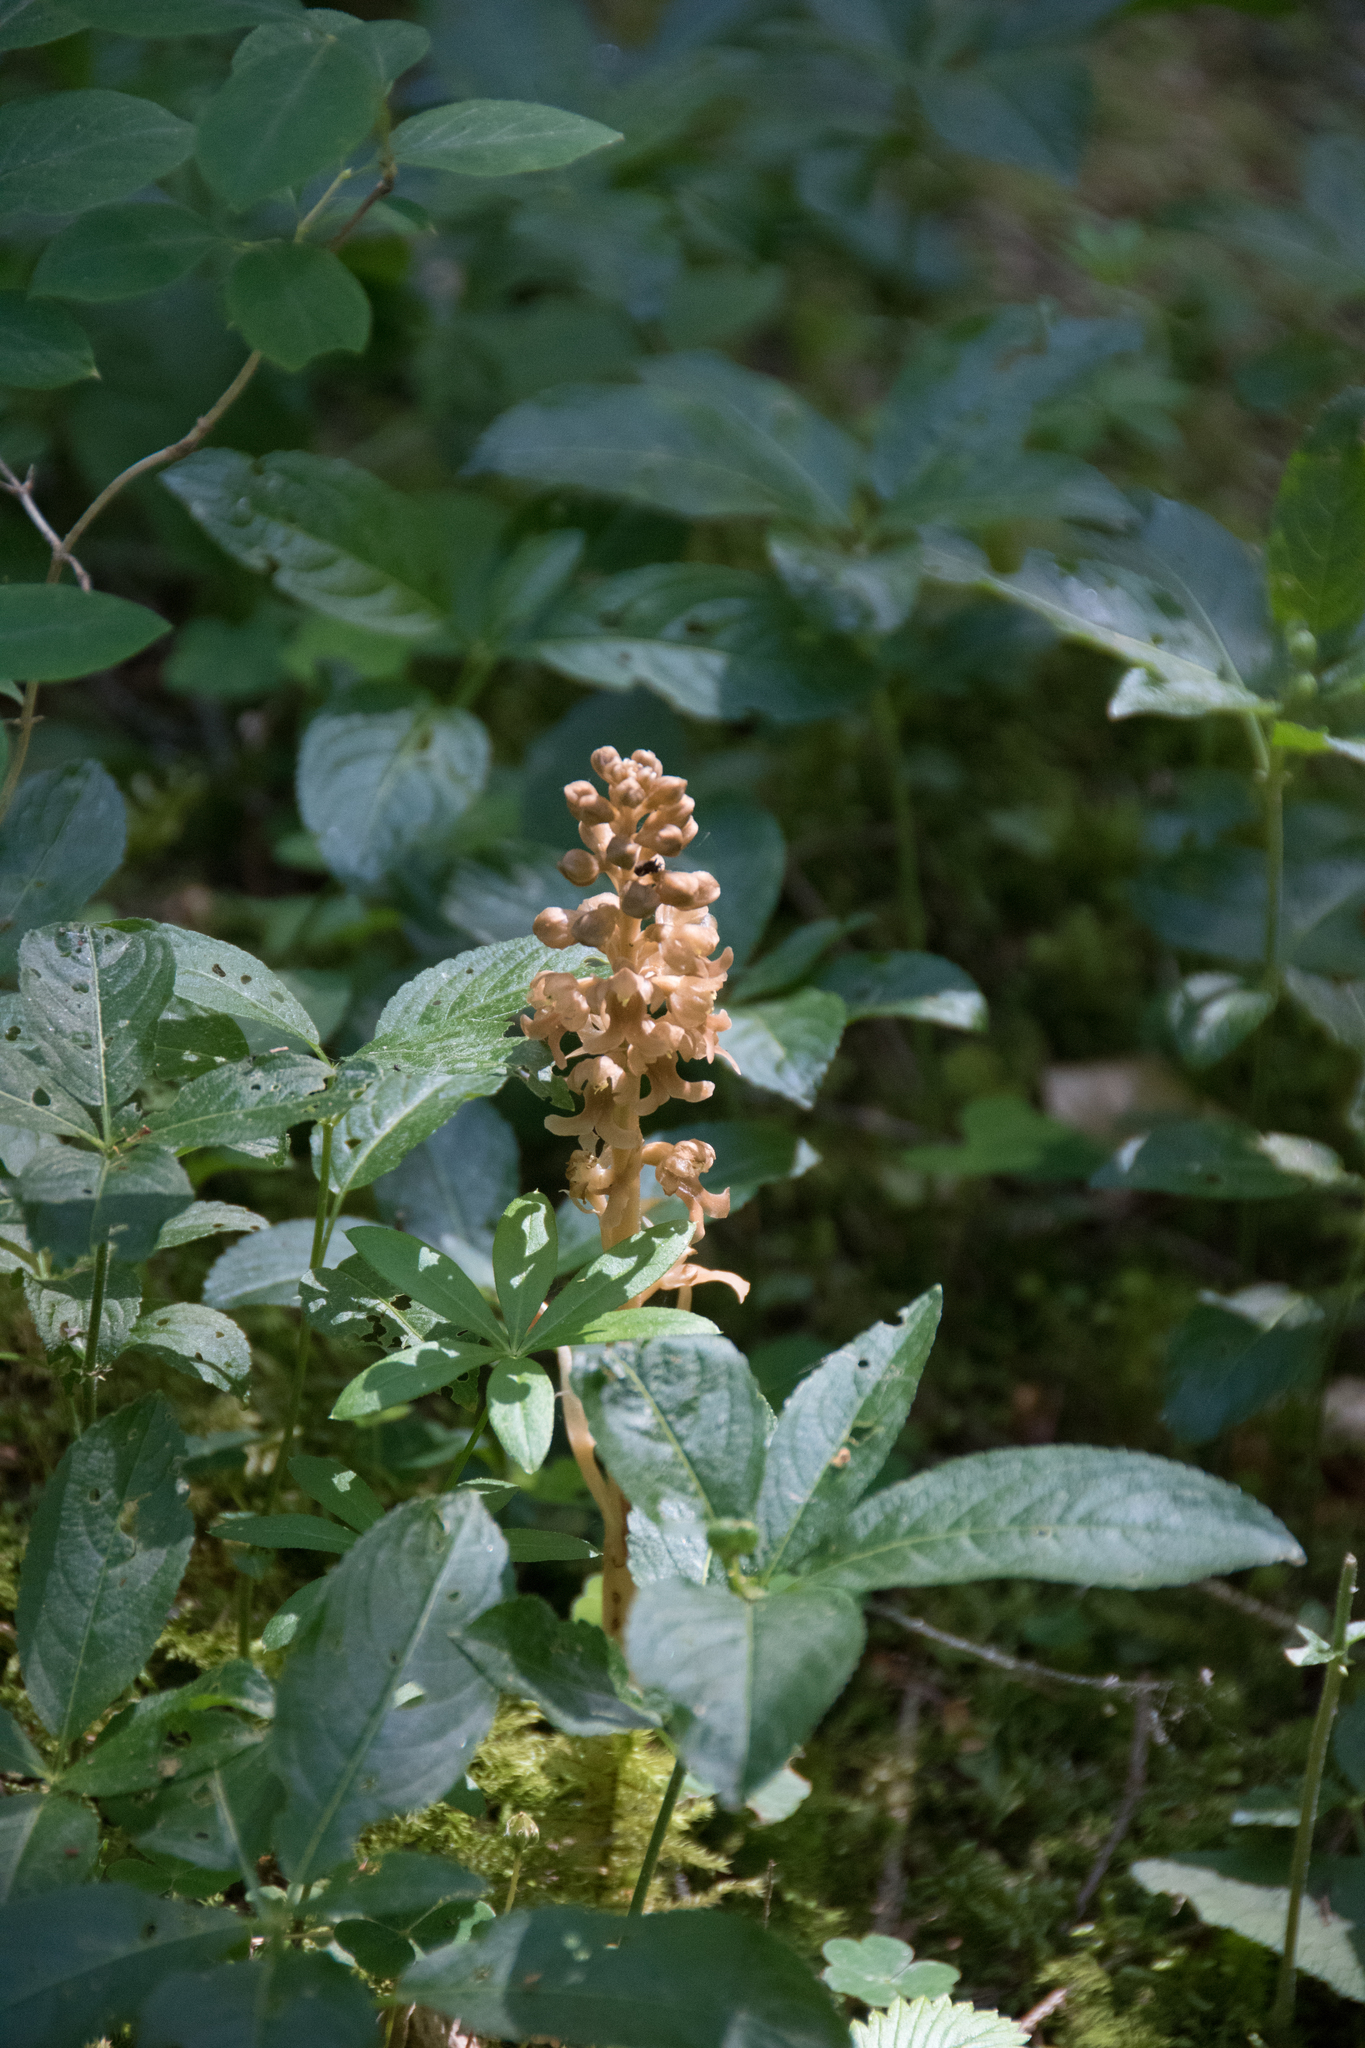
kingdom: Plantae
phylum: Tracheophyta
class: Liliopsida
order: Asparagales
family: Orchidaceae
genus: Neottia
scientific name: Neottia nidus-avis
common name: Bird's-nest orchid
